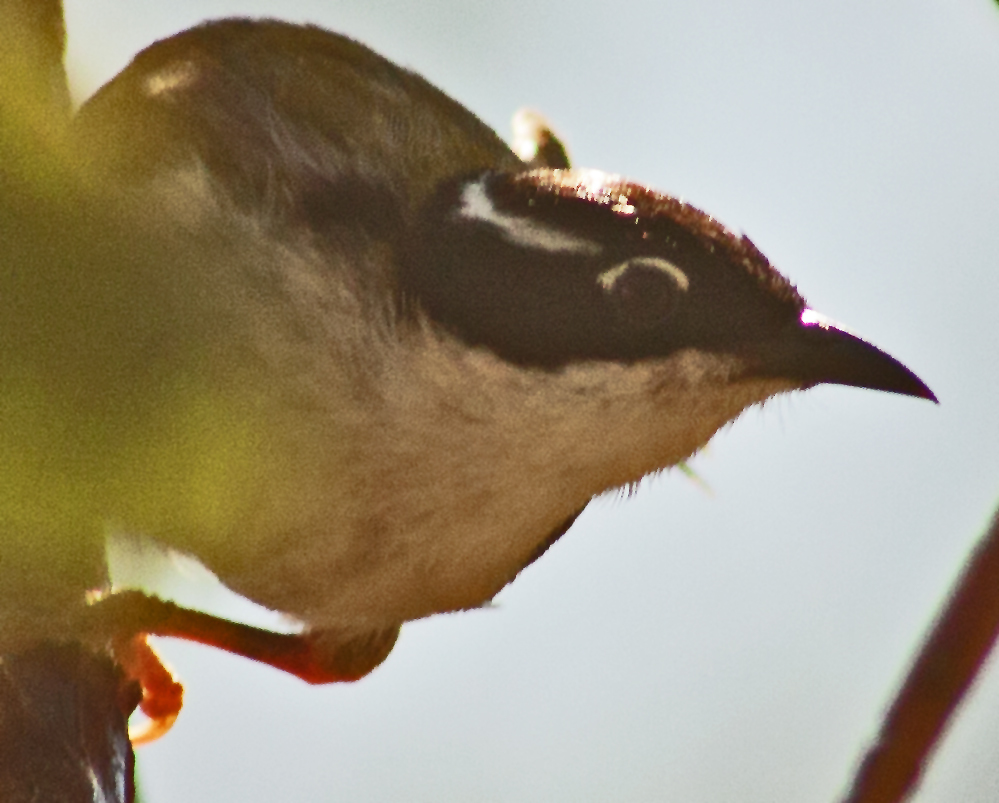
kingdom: Animalia
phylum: Chordata
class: Aves
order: Passeriformes
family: Meliphagidae
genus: Melithreptus
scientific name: Melithreptus albogularis
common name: White-throated honeyeater
